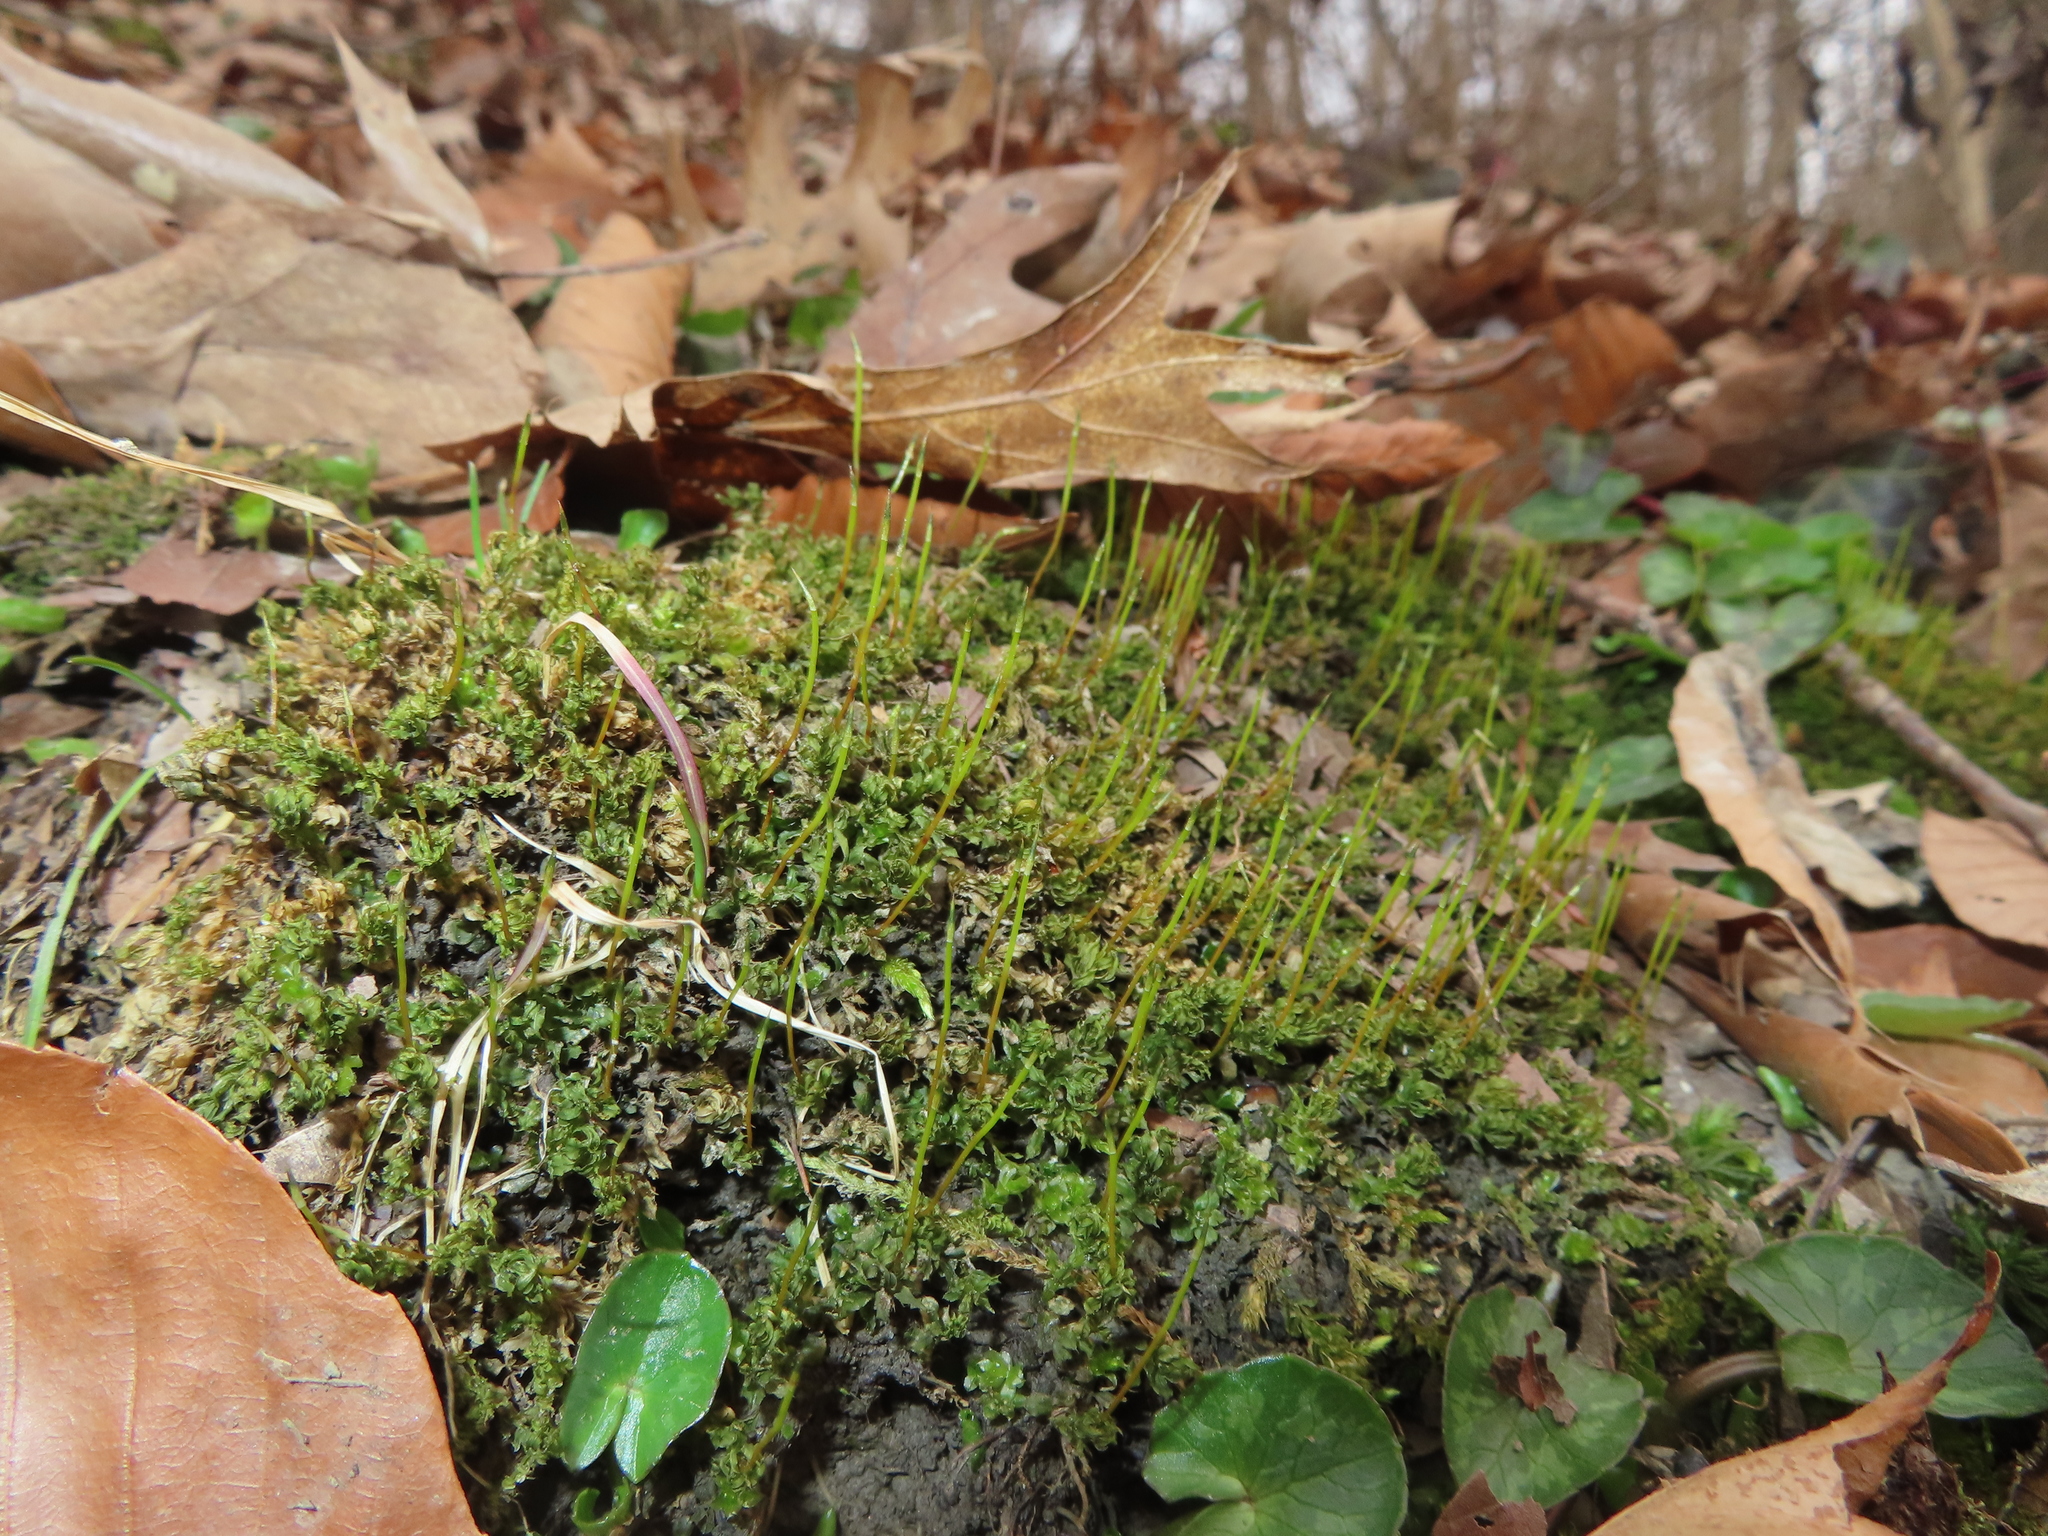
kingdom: Plantae
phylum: Bryophyta
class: Bryopsida
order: Bryales
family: Mniaceae
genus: Plagiomnium
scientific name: Plagiomnium cuspidatum
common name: Woodsy leafy moss
